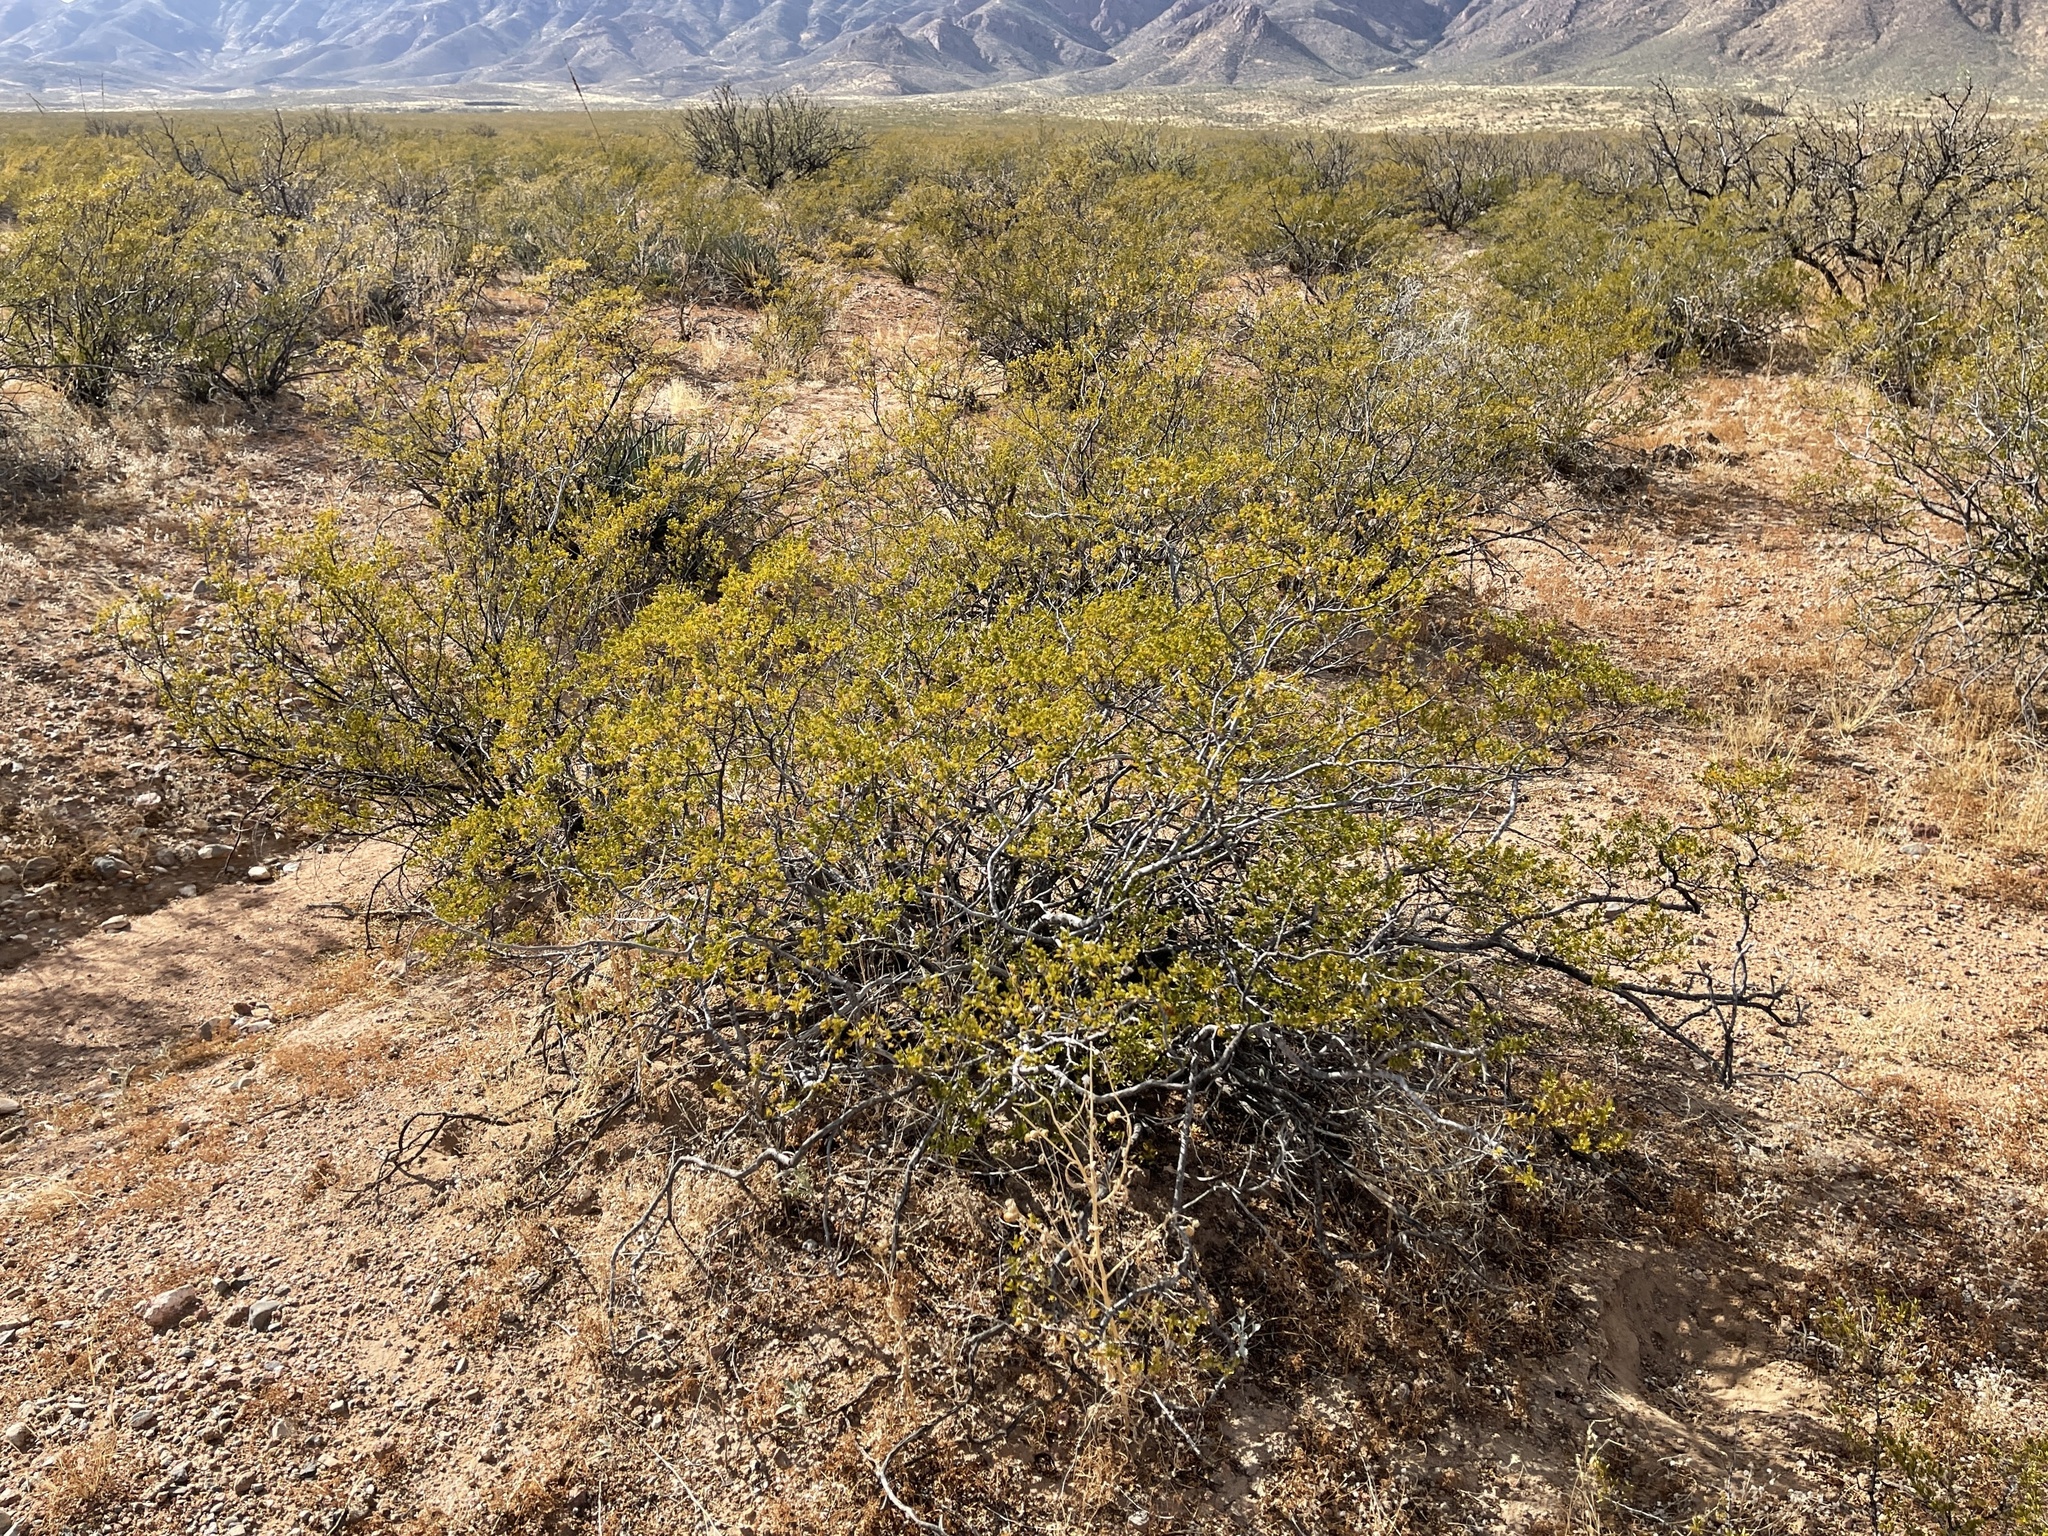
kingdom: Plantae
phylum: Tracheophyta
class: Magnoliopsida
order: Zygophyllales
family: Zygophyllaceae
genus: Larrea
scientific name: Larrea tridentata
